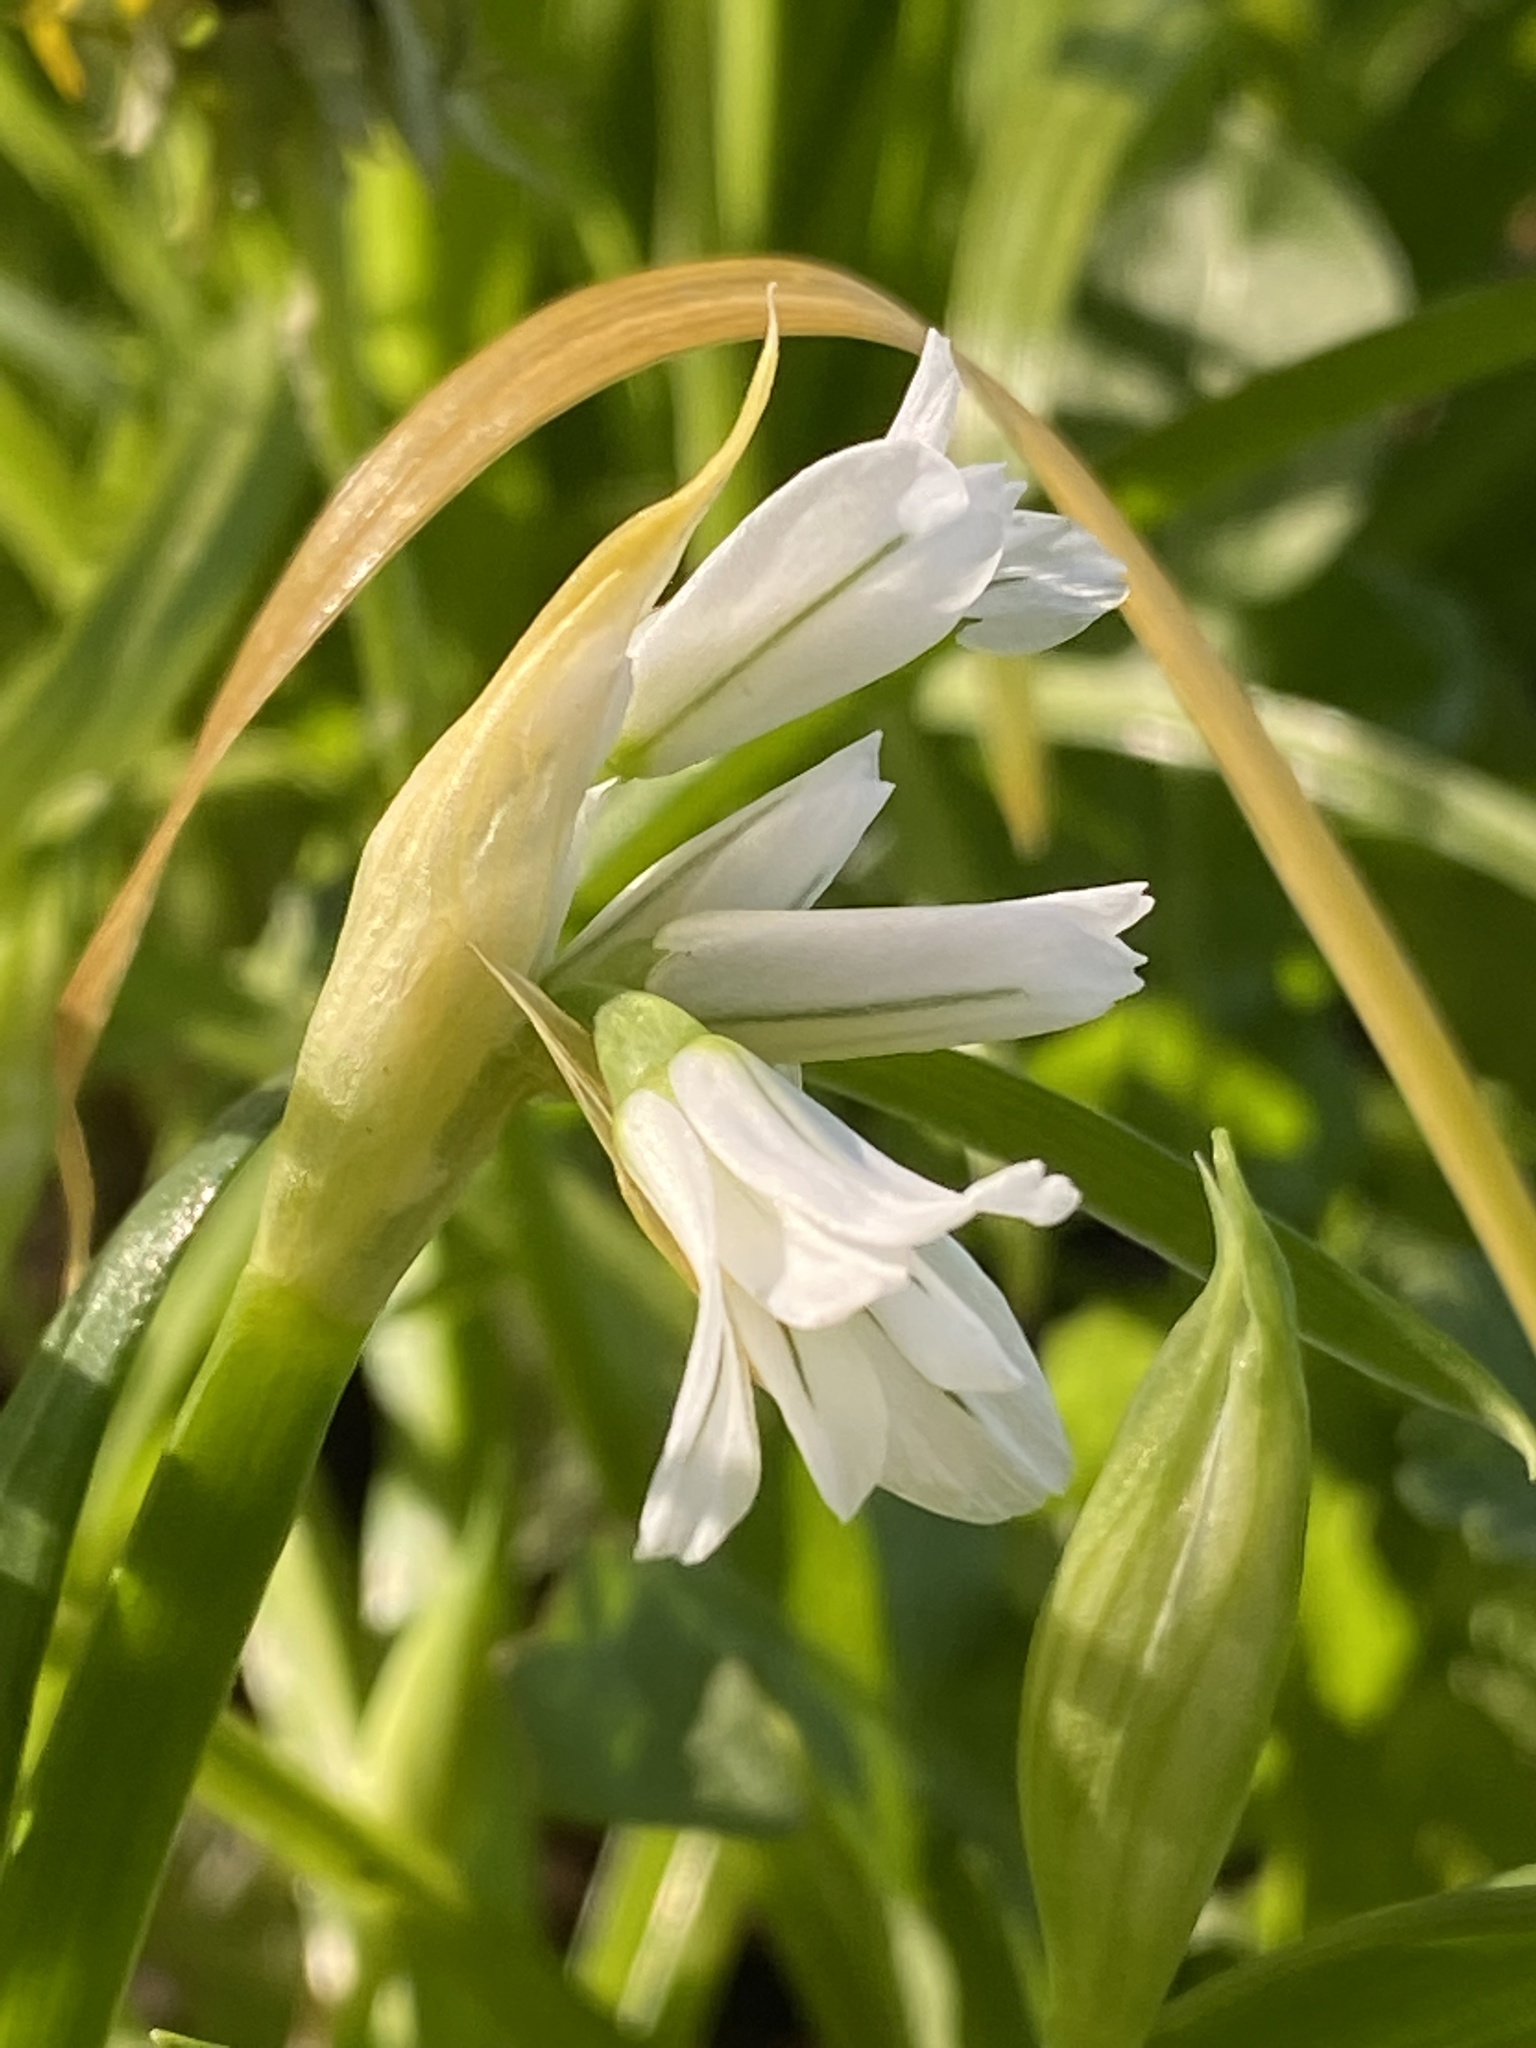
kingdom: Plantae
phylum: Tracheophyta
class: Liliopsida
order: Asparagales
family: Amaryllidaceae
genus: Allium
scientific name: Allium triquetrum
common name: Three-cornered garlic
